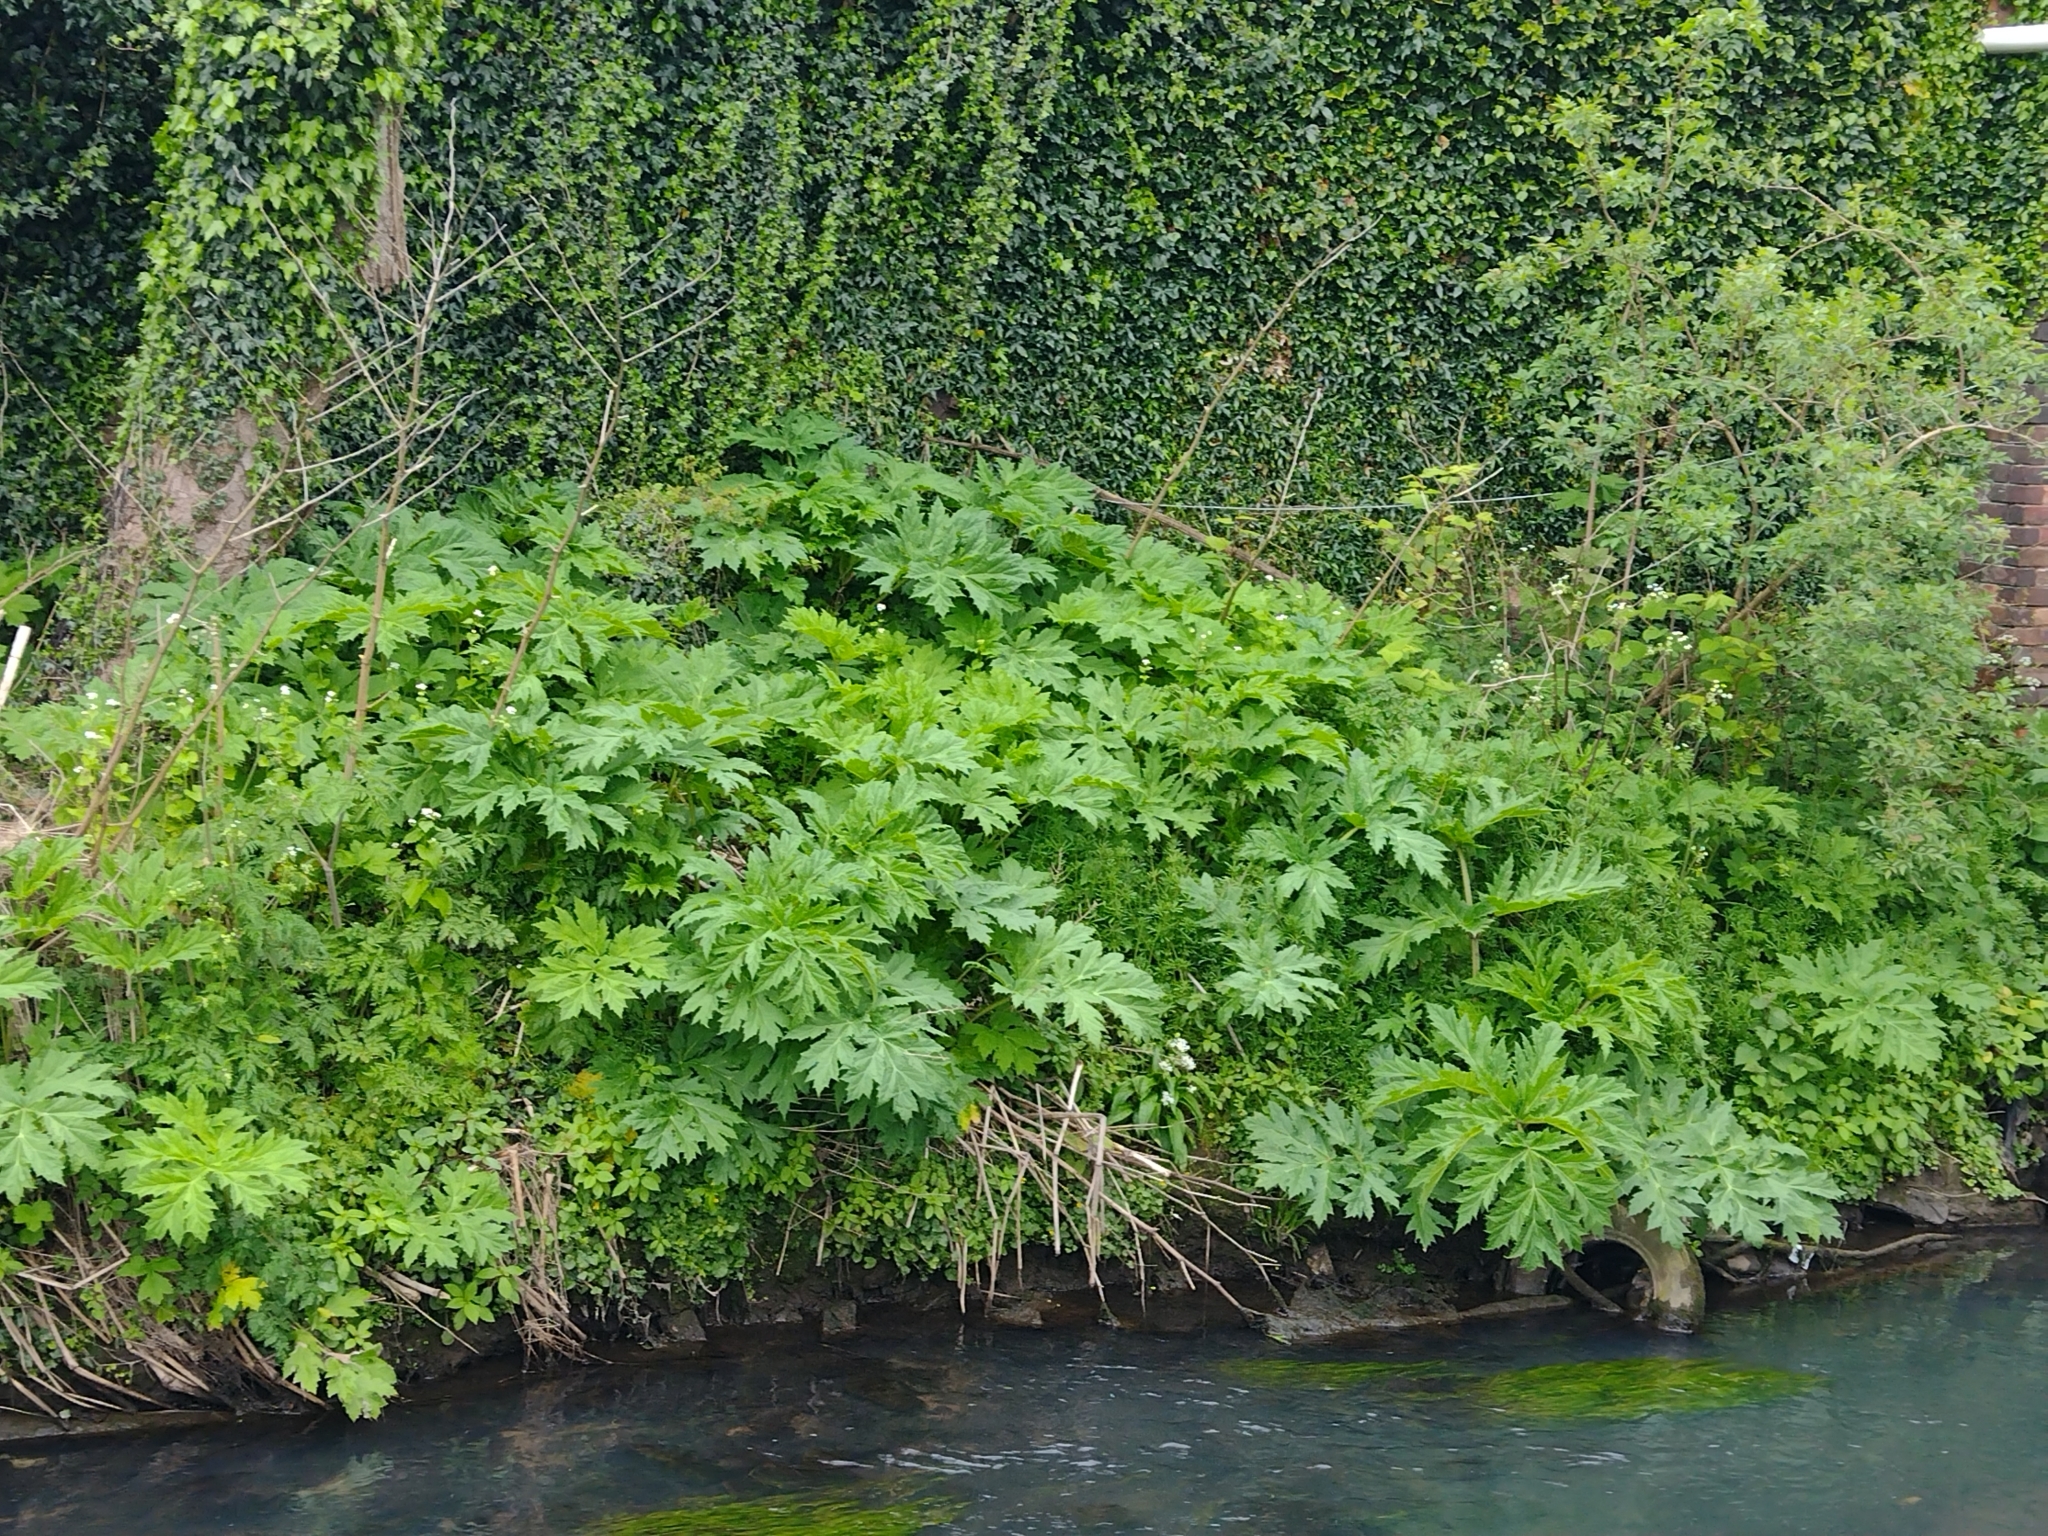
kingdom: Plantae
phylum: Tracheophyta
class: Magnoliopsida
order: Apiales
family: Apiaceae
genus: Heracleum
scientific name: Heracleum mantegazzianum
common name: Giant hogweed
